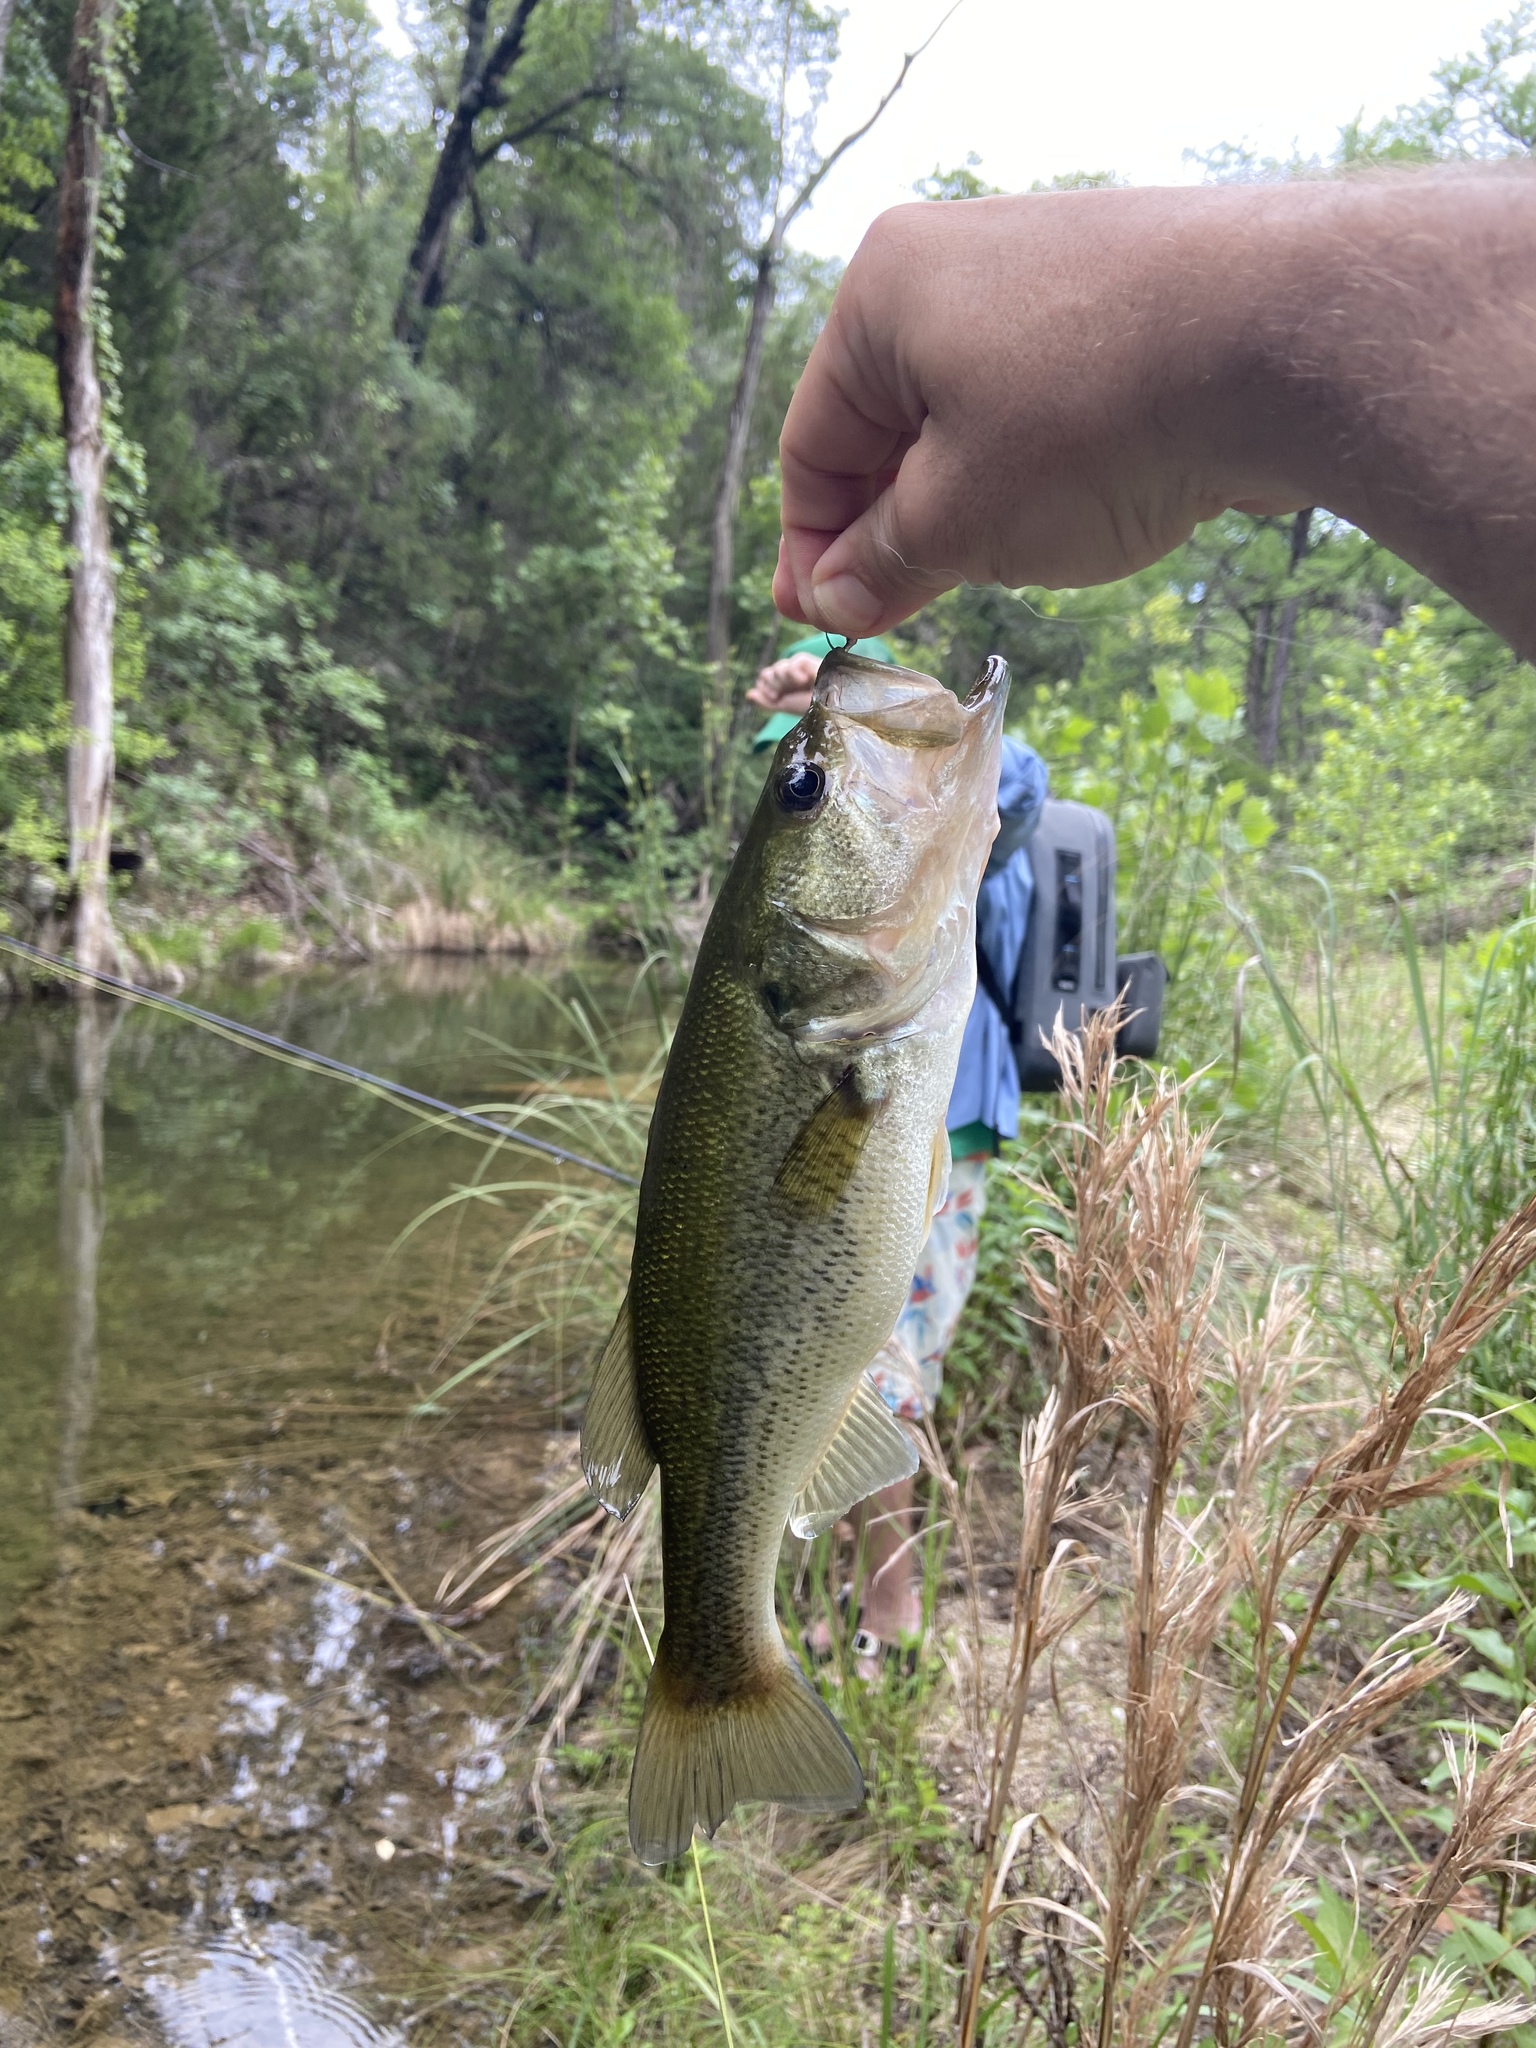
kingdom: Animalia
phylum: Chordata
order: Perciformes
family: Centrarchidae
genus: Micropterus
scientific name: Micropterus
